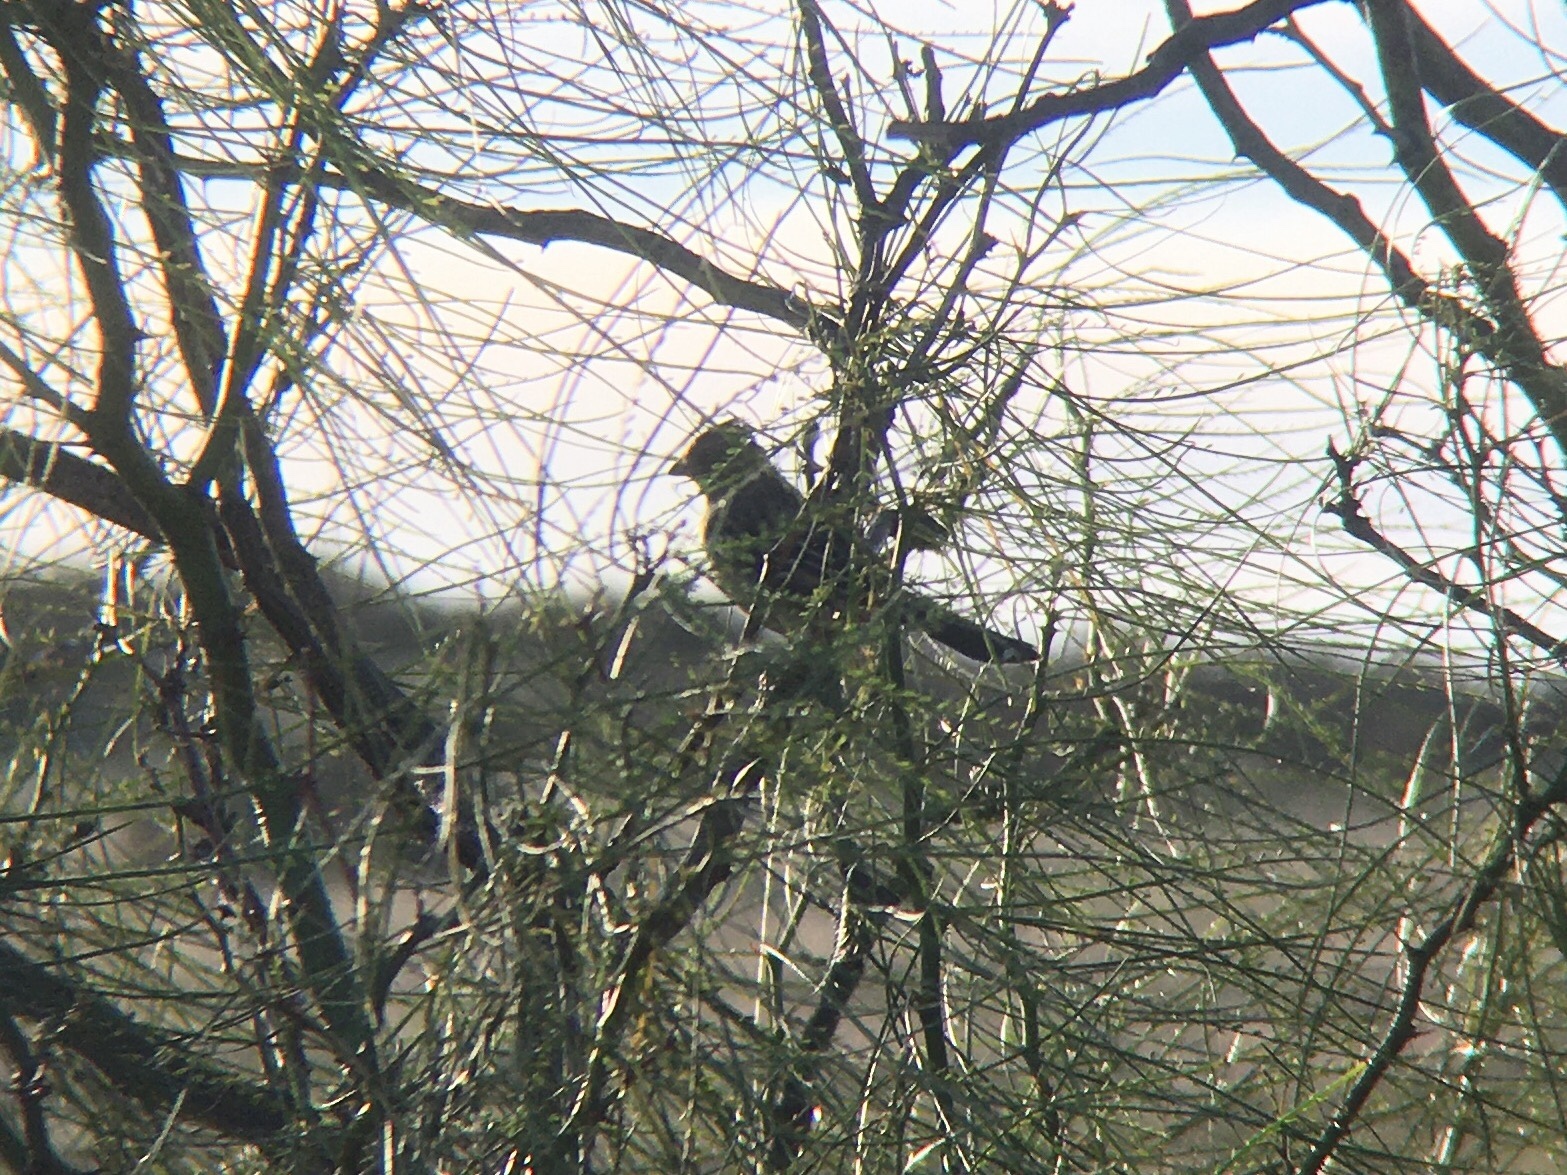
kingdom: Animalia
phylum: Chordata
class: Aves
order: Passeriformes
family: Cotingidae
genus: Phytotoma
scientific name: Phytotoma rutila
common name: White-tipped plantcutter
